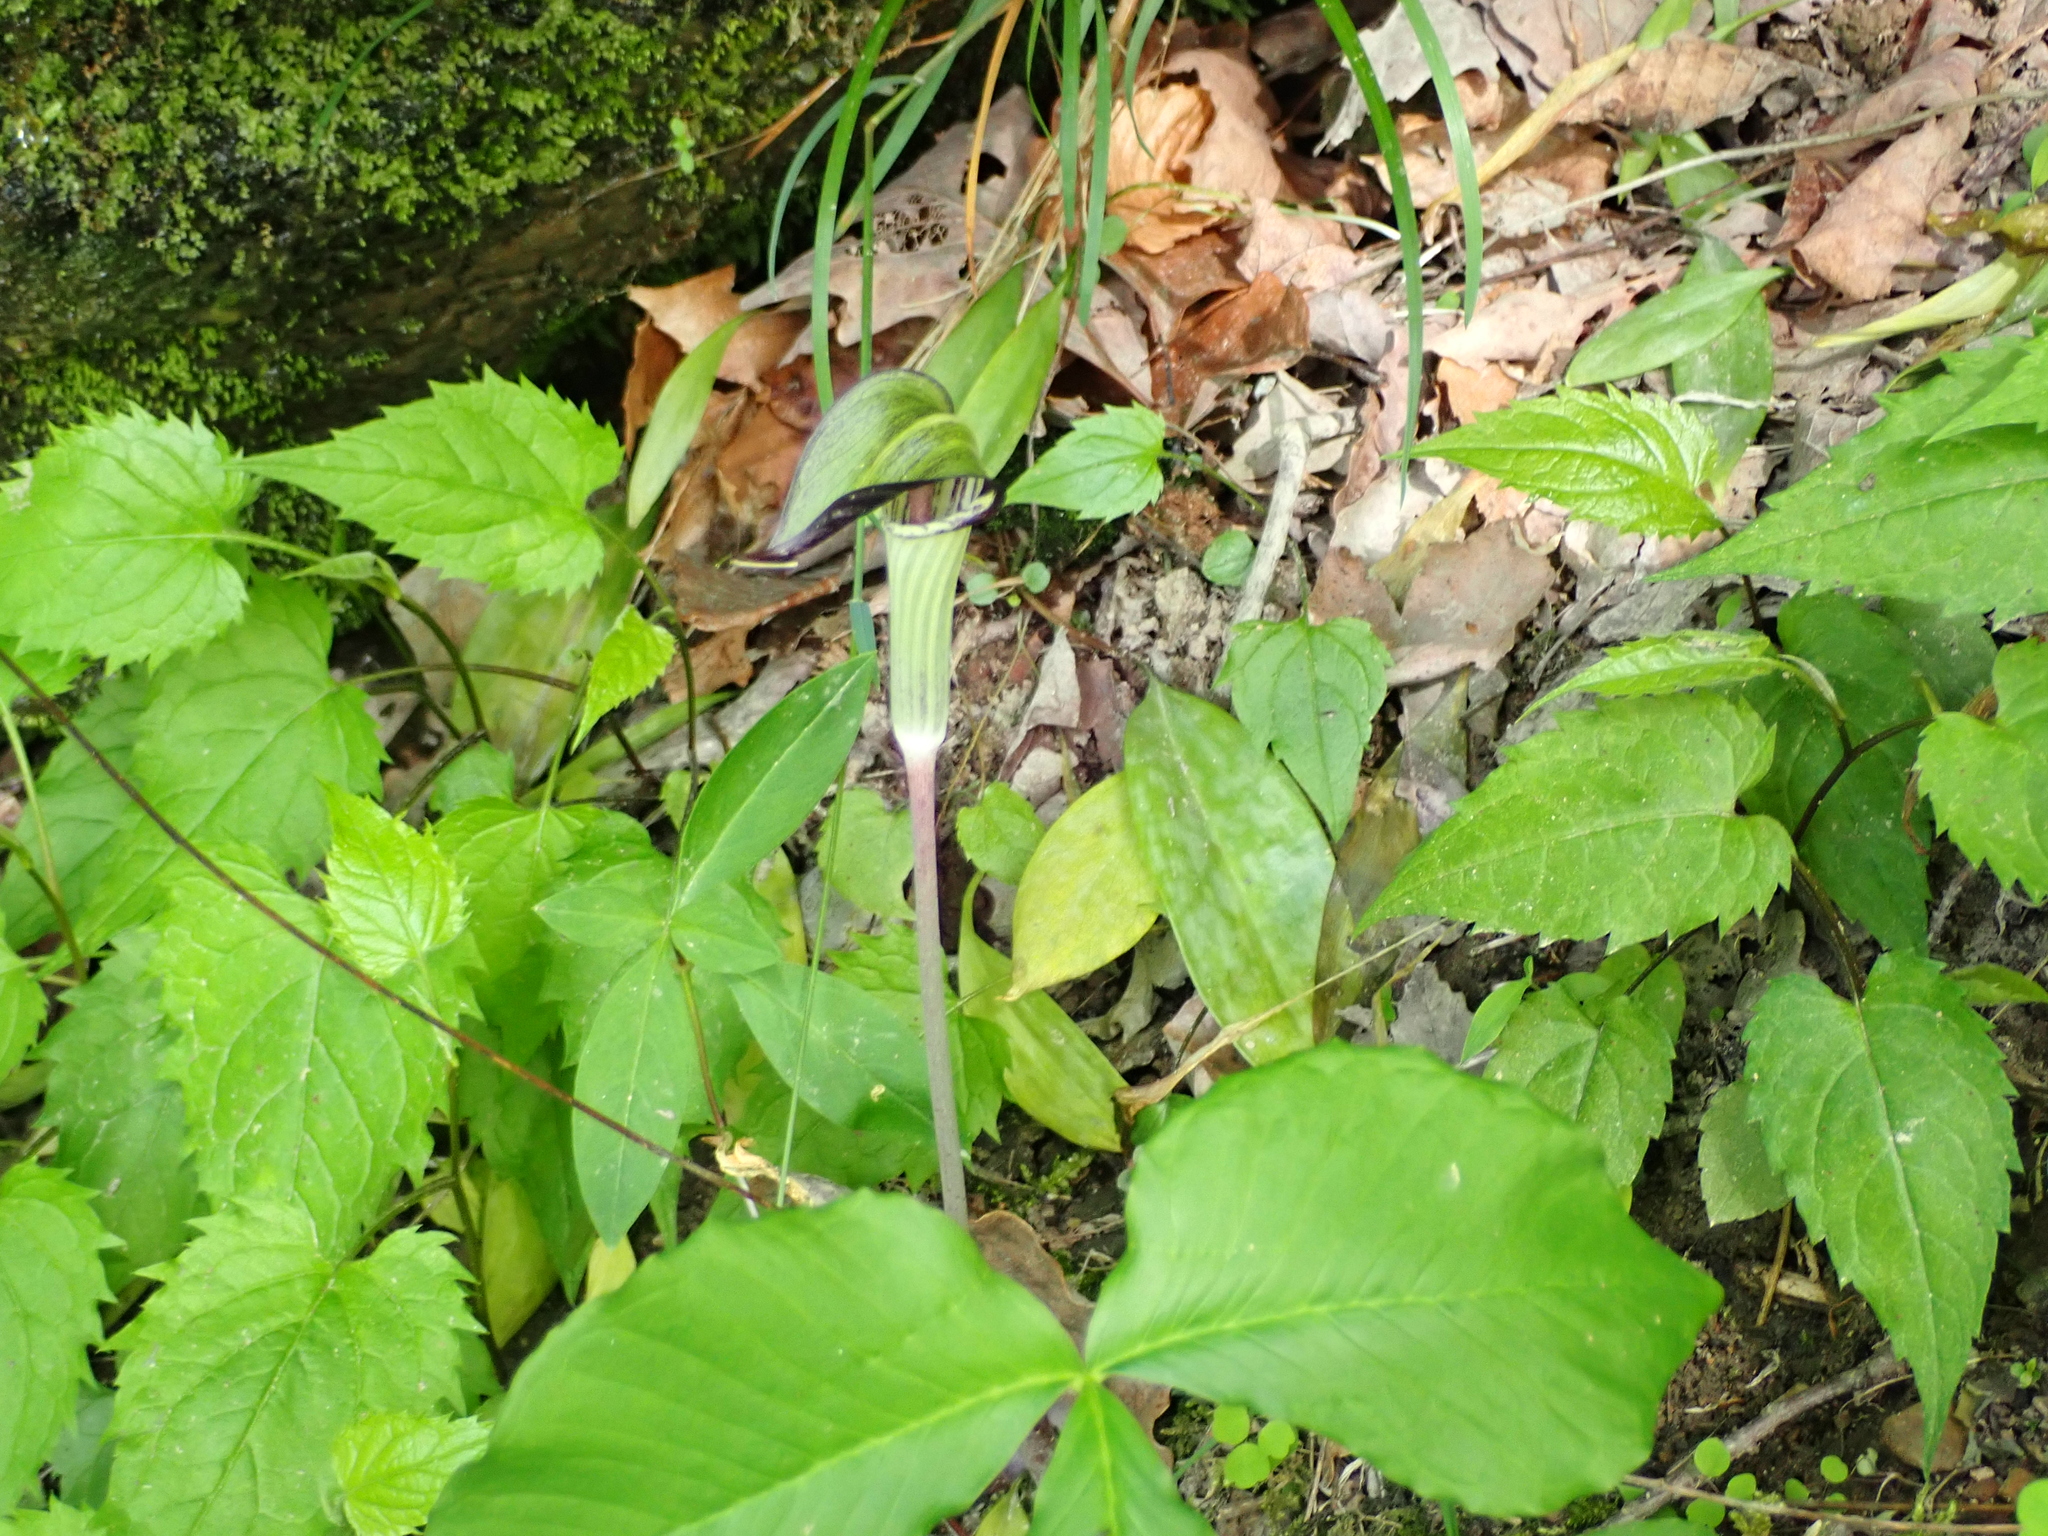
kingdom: Plantae
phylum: Tracheophyta
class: Liliopsida
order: Alismatales
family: Araceae
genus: Arisaema
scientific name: Arisaema triphyllum
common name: Jack-in-the-pulpit
